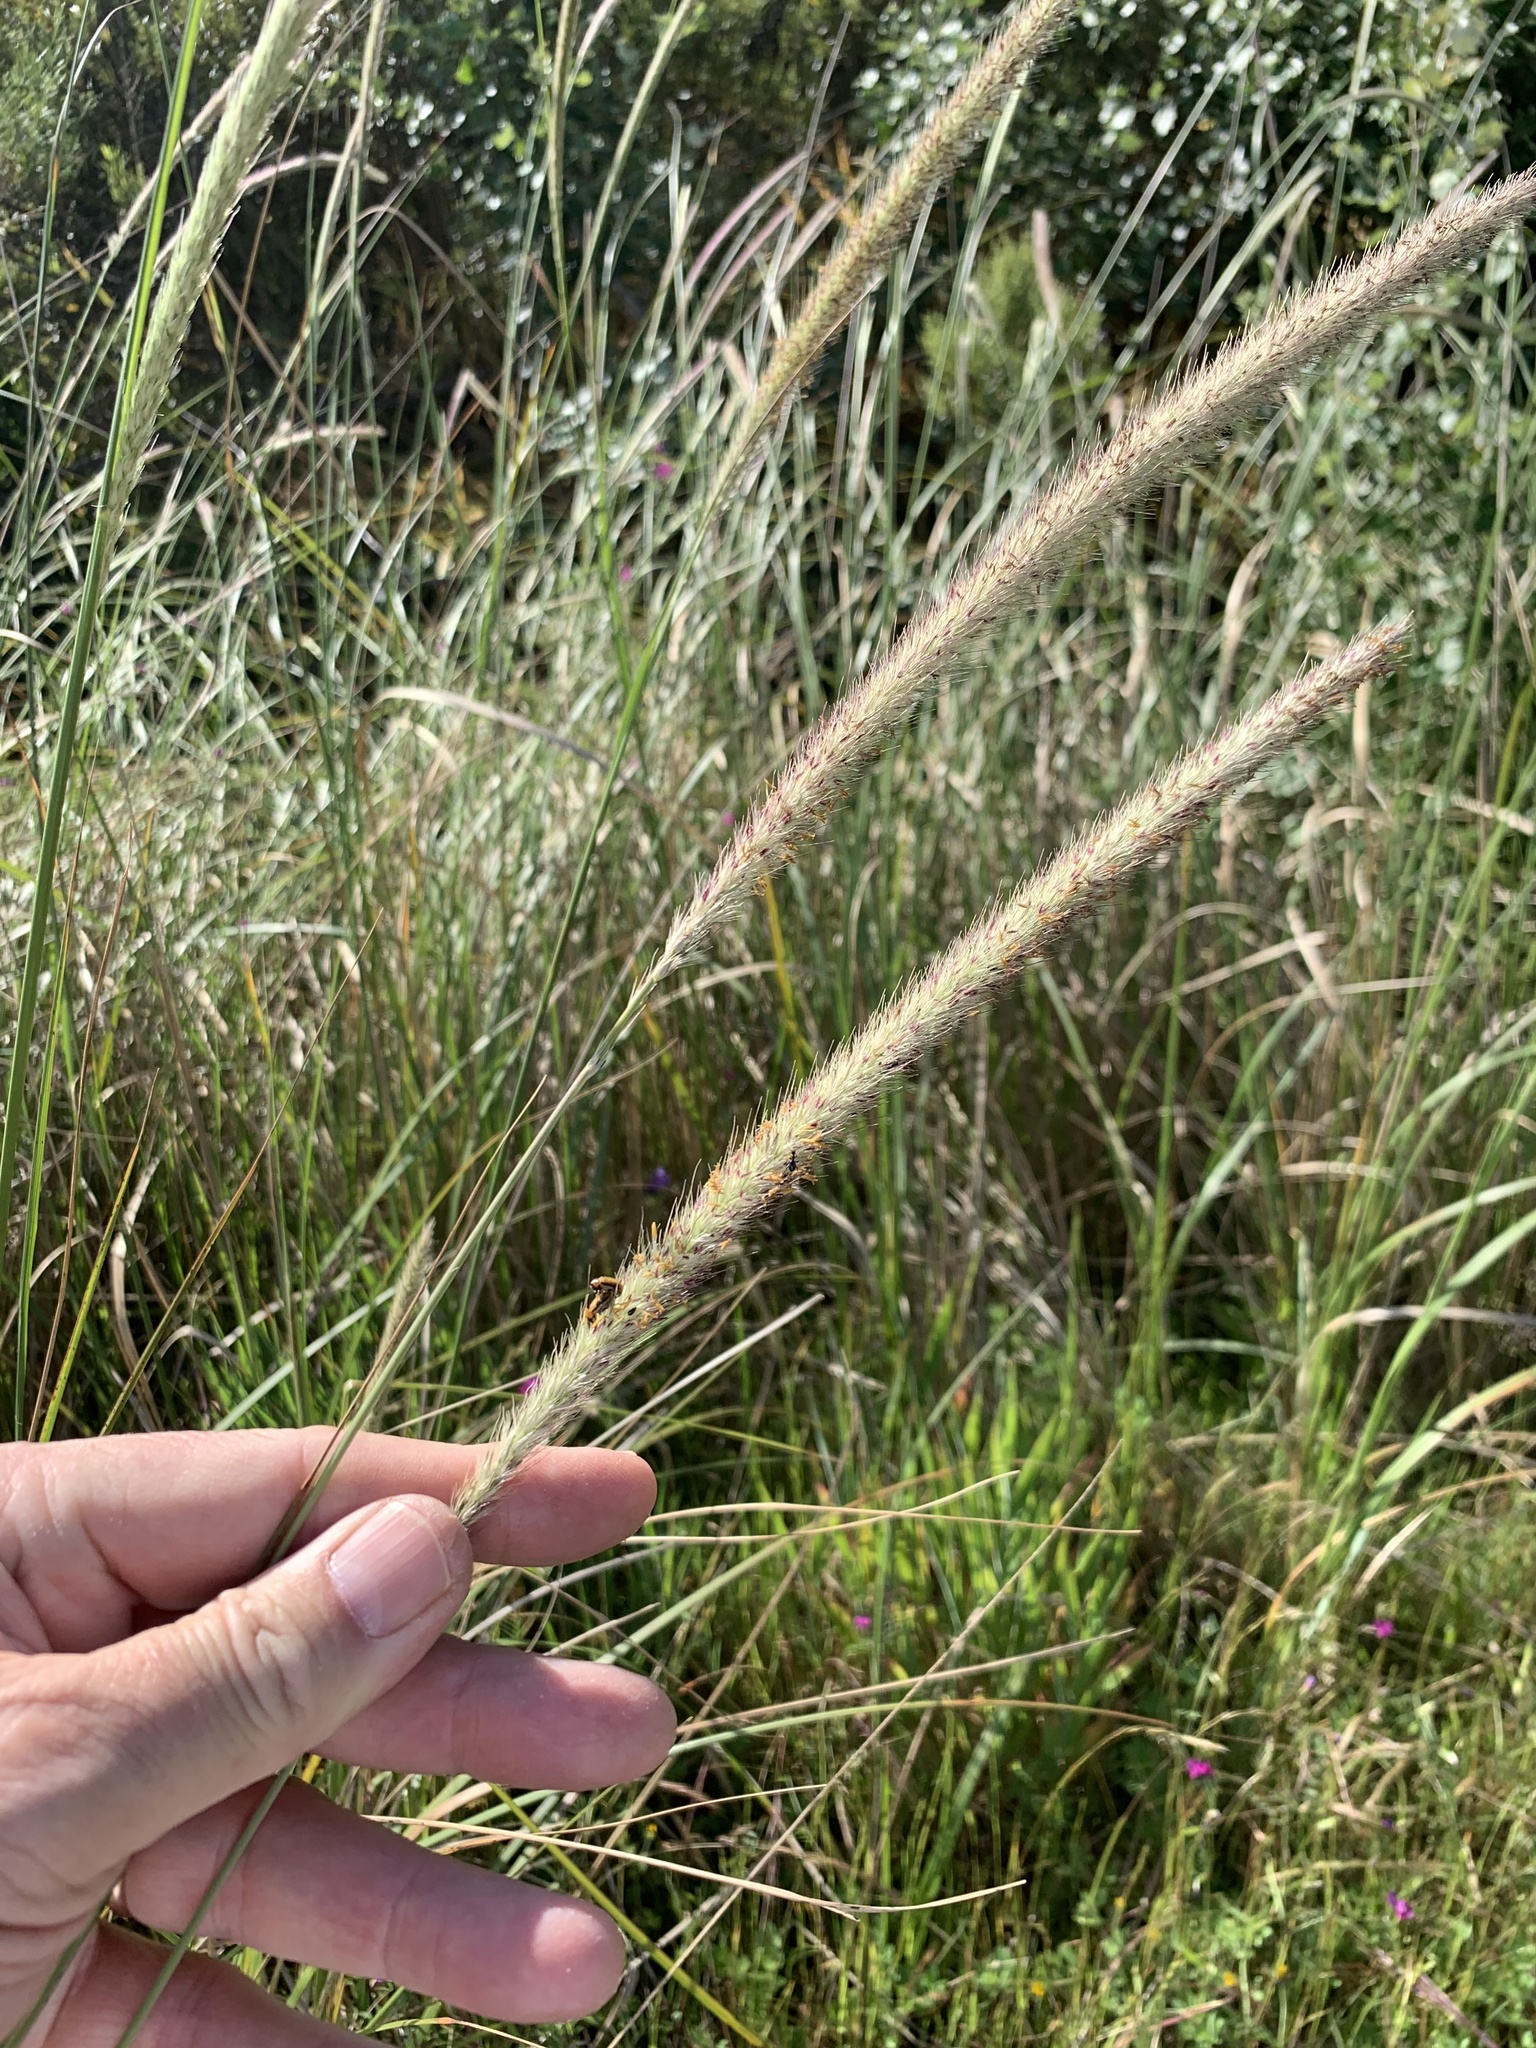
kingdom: Plantae
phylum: Tracheophyta
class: Liliopsida
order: Poales
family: Poaceae
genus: Cenchrus
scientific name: Cenchrus caudatus
